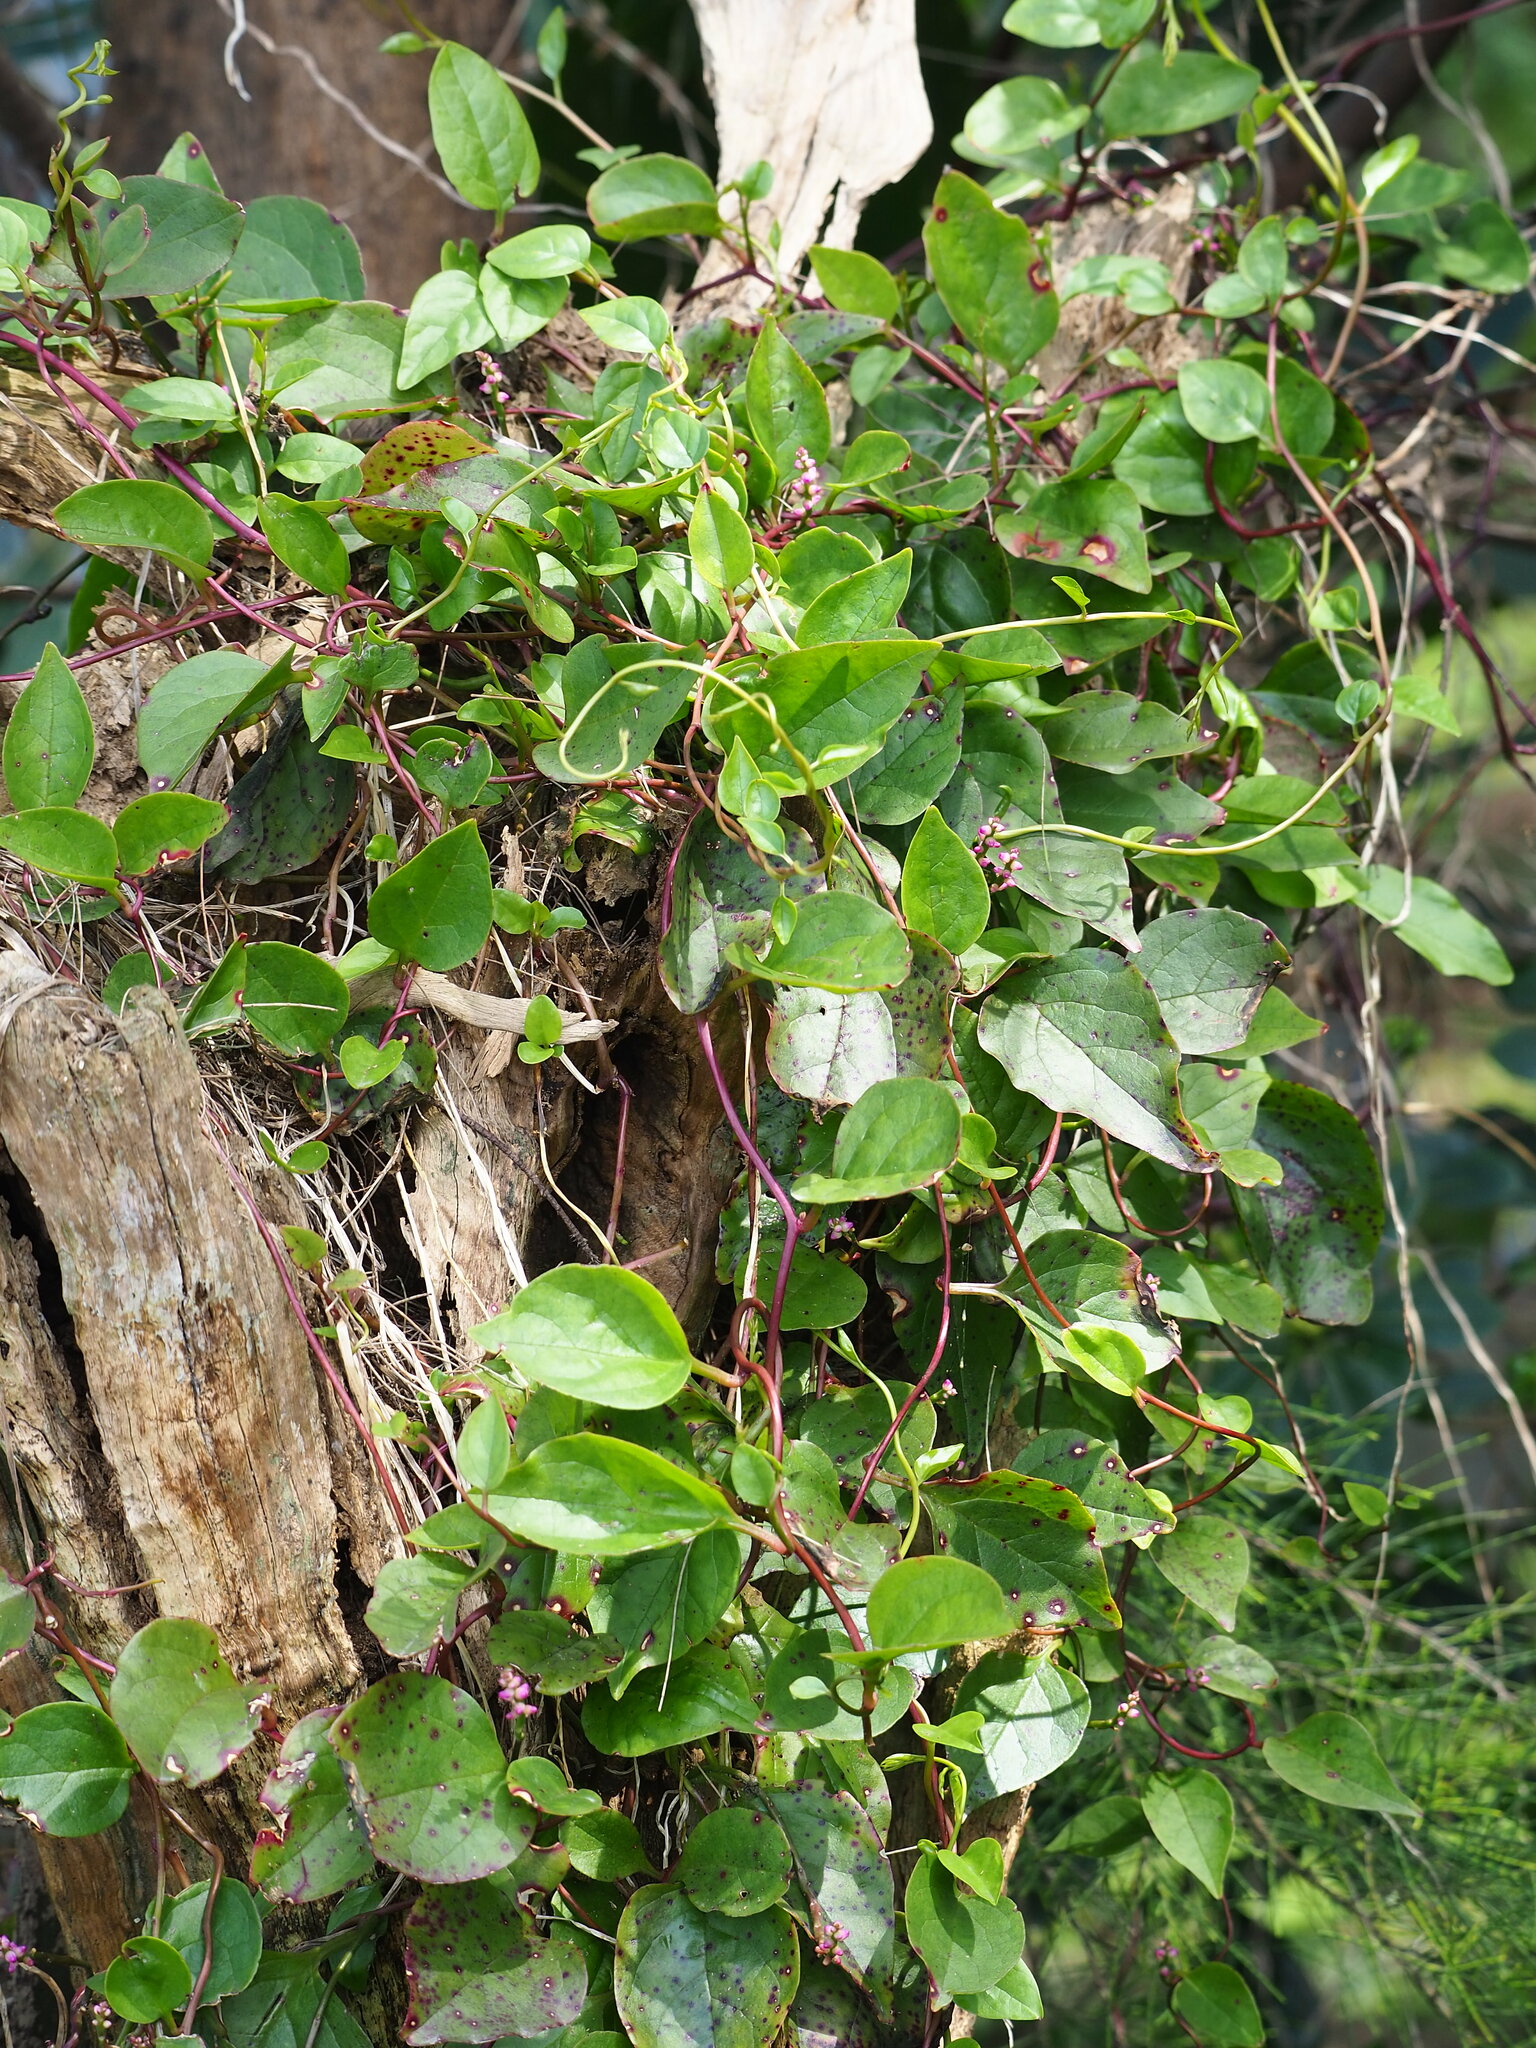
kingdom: Plantae
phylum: Tracheophyta
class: Magnoliopsida
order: Caryophyllales
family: Basellaceae
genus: Anredera
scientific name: Anredera cordifolia
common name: Heartleaf madeiravine
